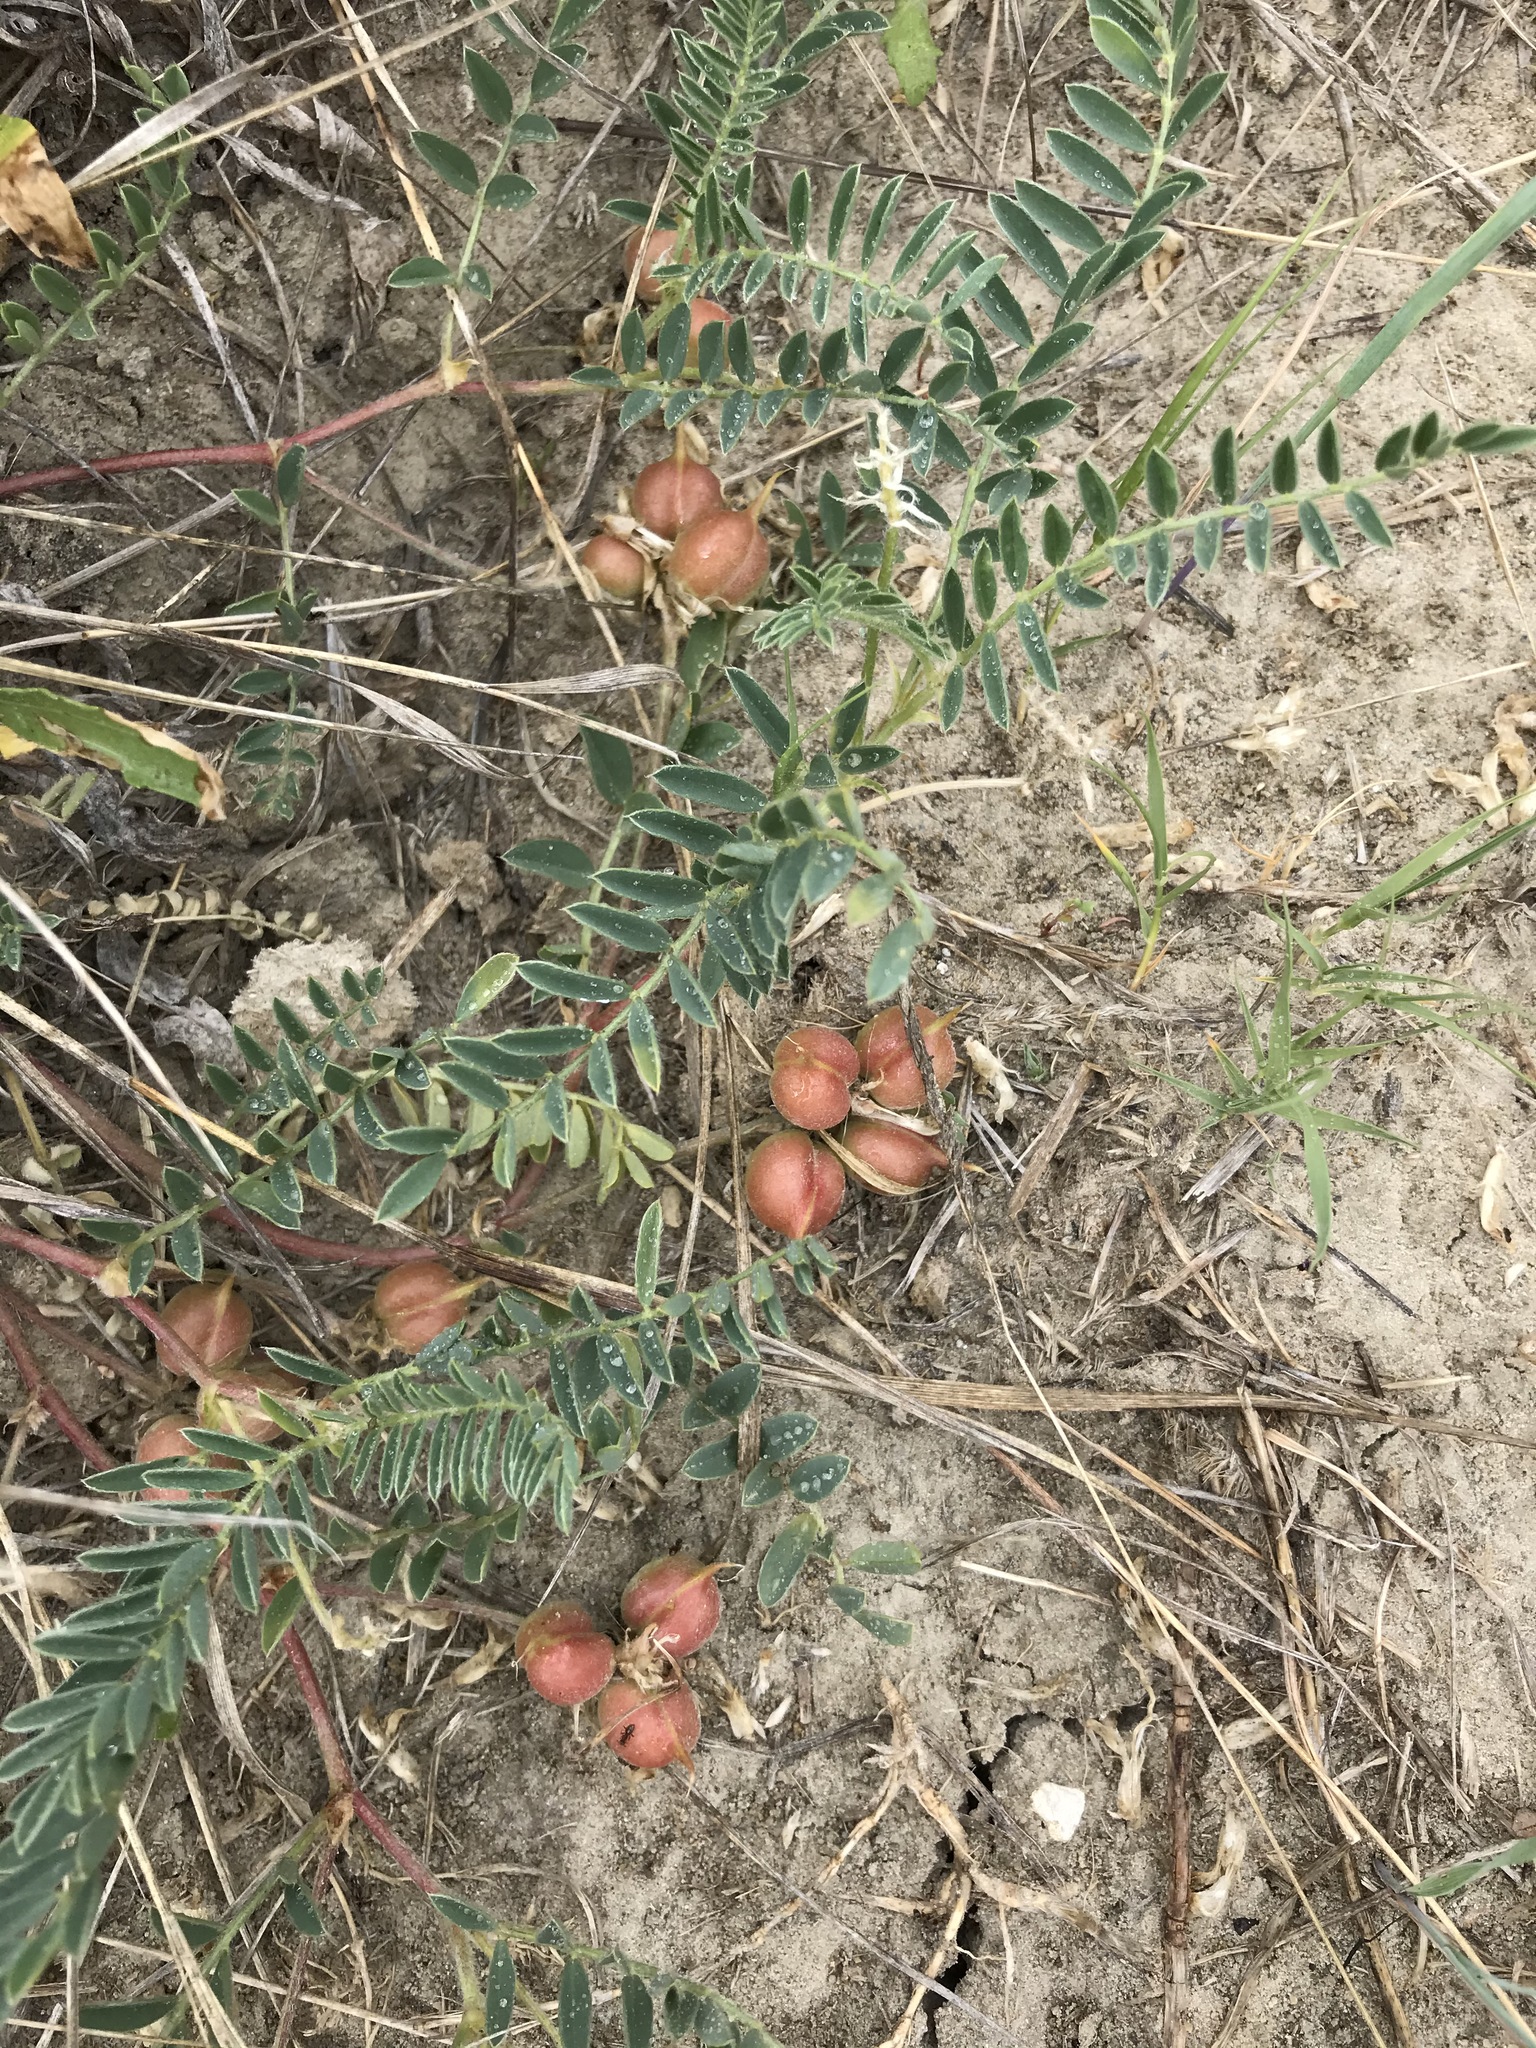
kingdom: Plantae
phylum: Tracheophyta
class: Magnoliopsida
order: Fabales
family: Fabaceae
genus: Astragalus
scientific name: Astragalus crassicarpus
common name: Ground-plum milk-vetch
